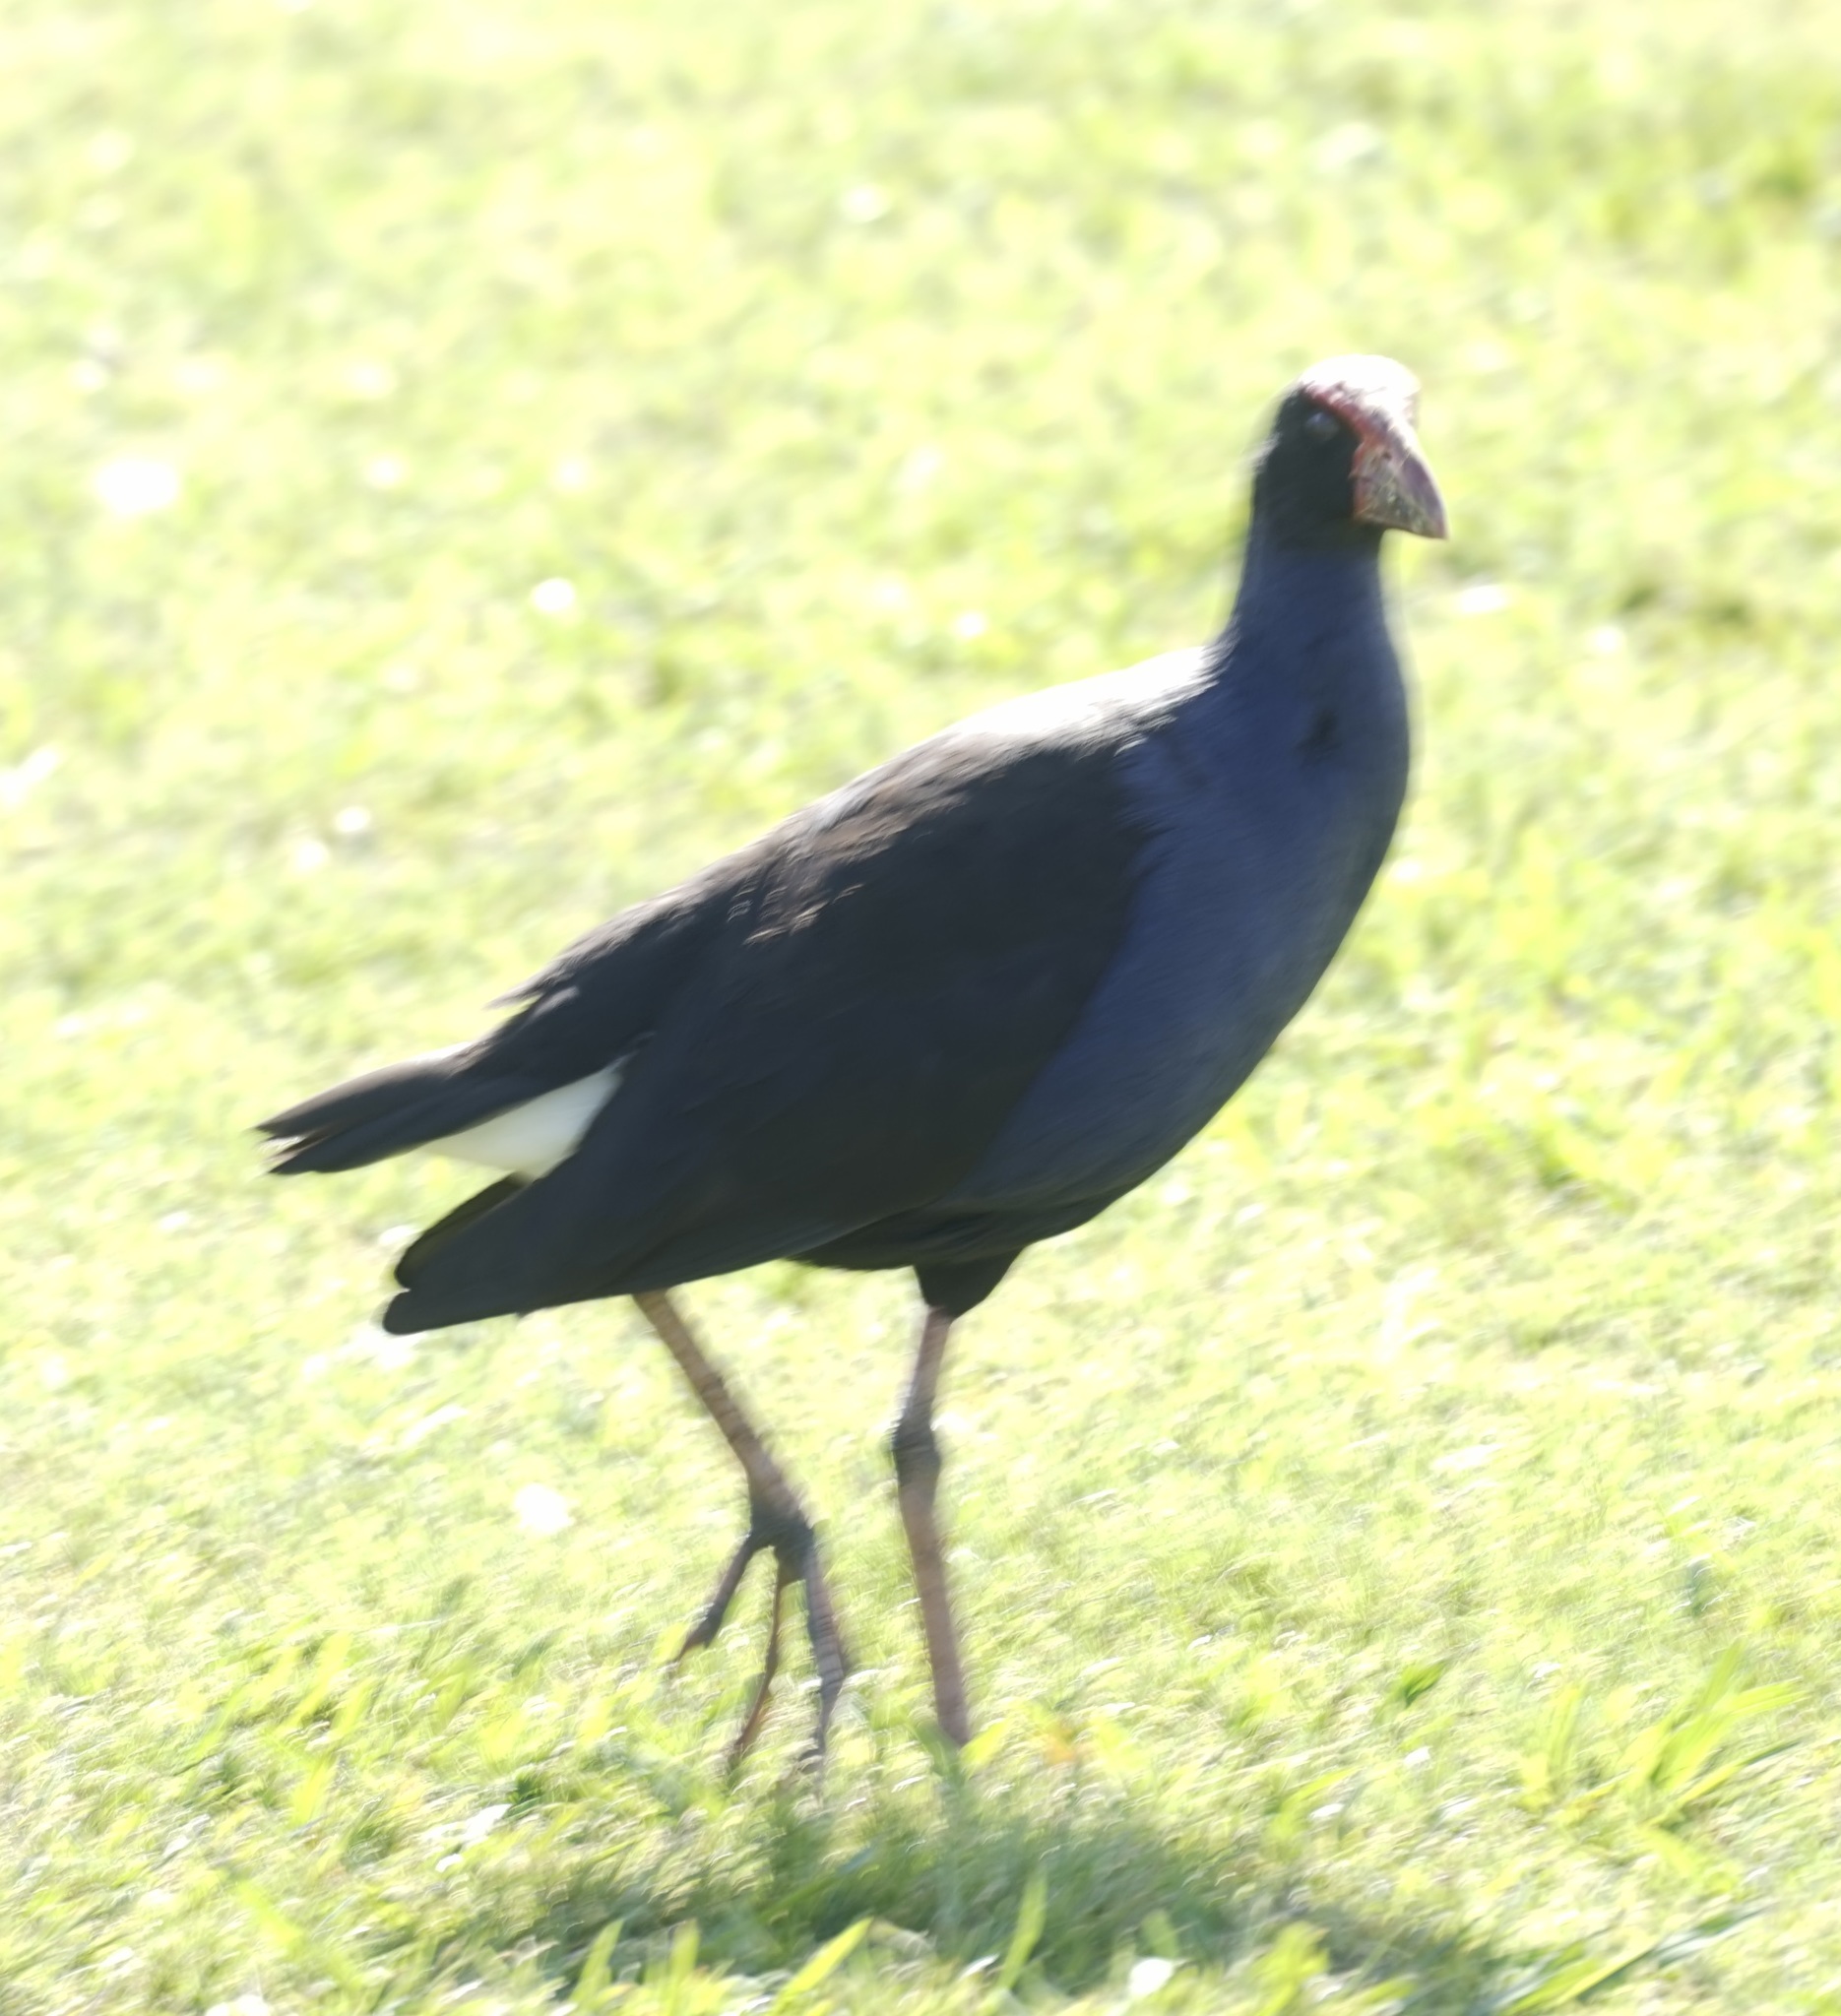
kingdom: Animalia
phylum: Chordata
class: Aves
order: Gruiformes
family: Rallidae
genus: Porphyrio
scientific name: Porphyrio melanotus
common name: Australasian swamphen
